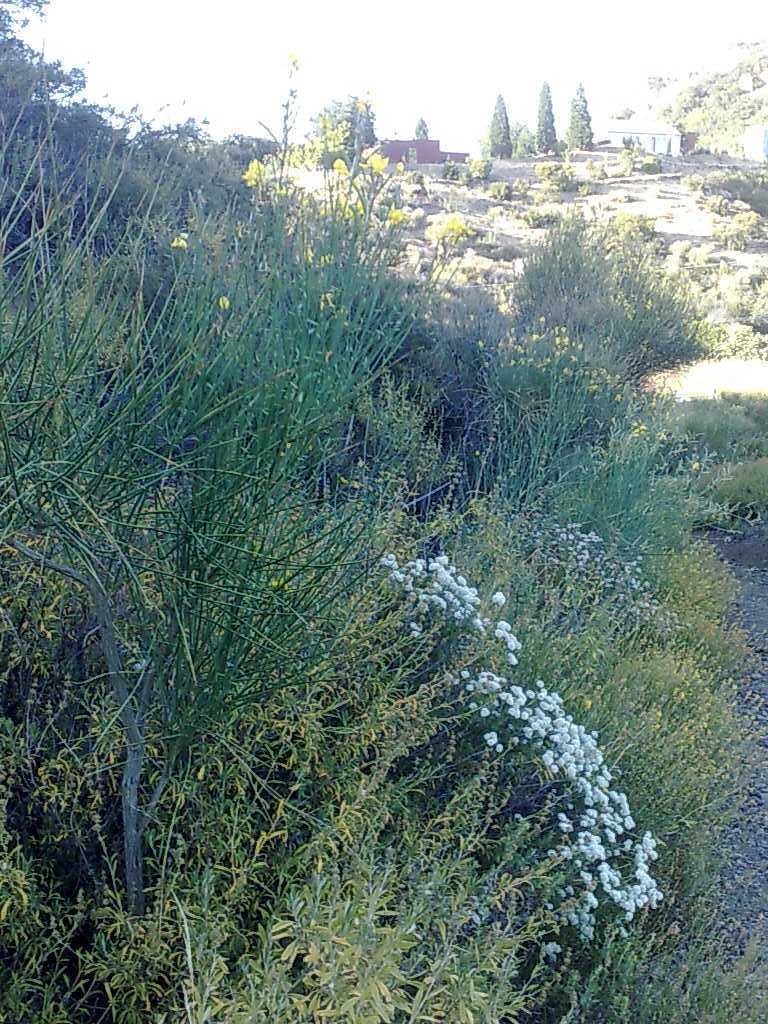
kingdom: Plantae
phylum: Tracheophyta
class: Magnoliopsida
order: Caryophyllales
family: Polygonaceae
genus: Eriogonum
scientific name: Eriogonum fasciculatum
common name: California wild buckwheat
